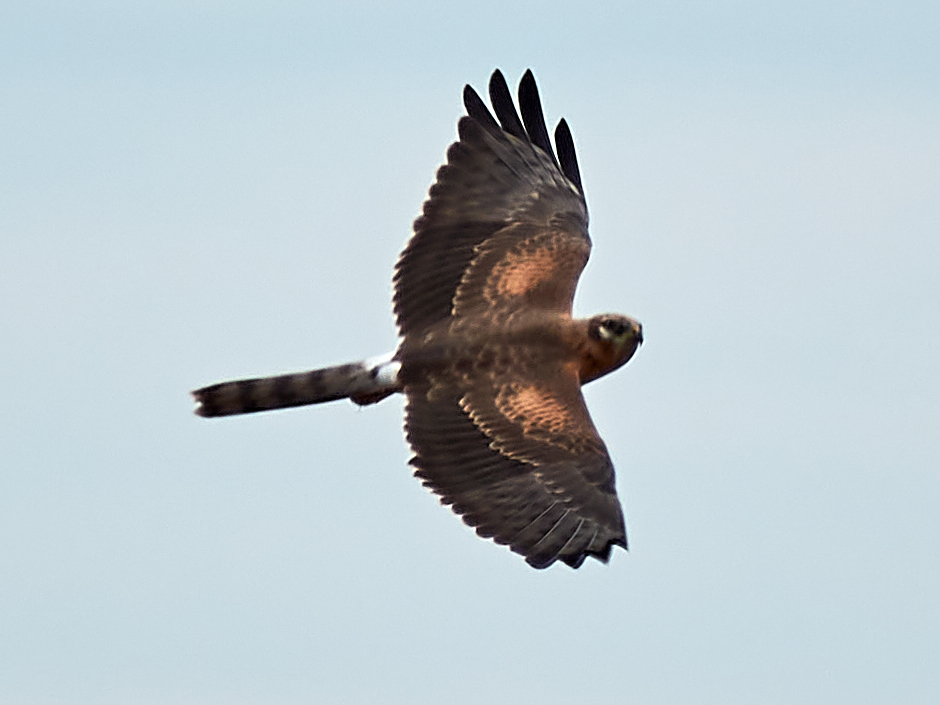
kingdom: Animalia
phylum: Chordata
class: Aves
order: Accipitriformes
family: Accipitridae
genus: Circus
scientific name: Circus pygargus
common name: Montagu's harrier
